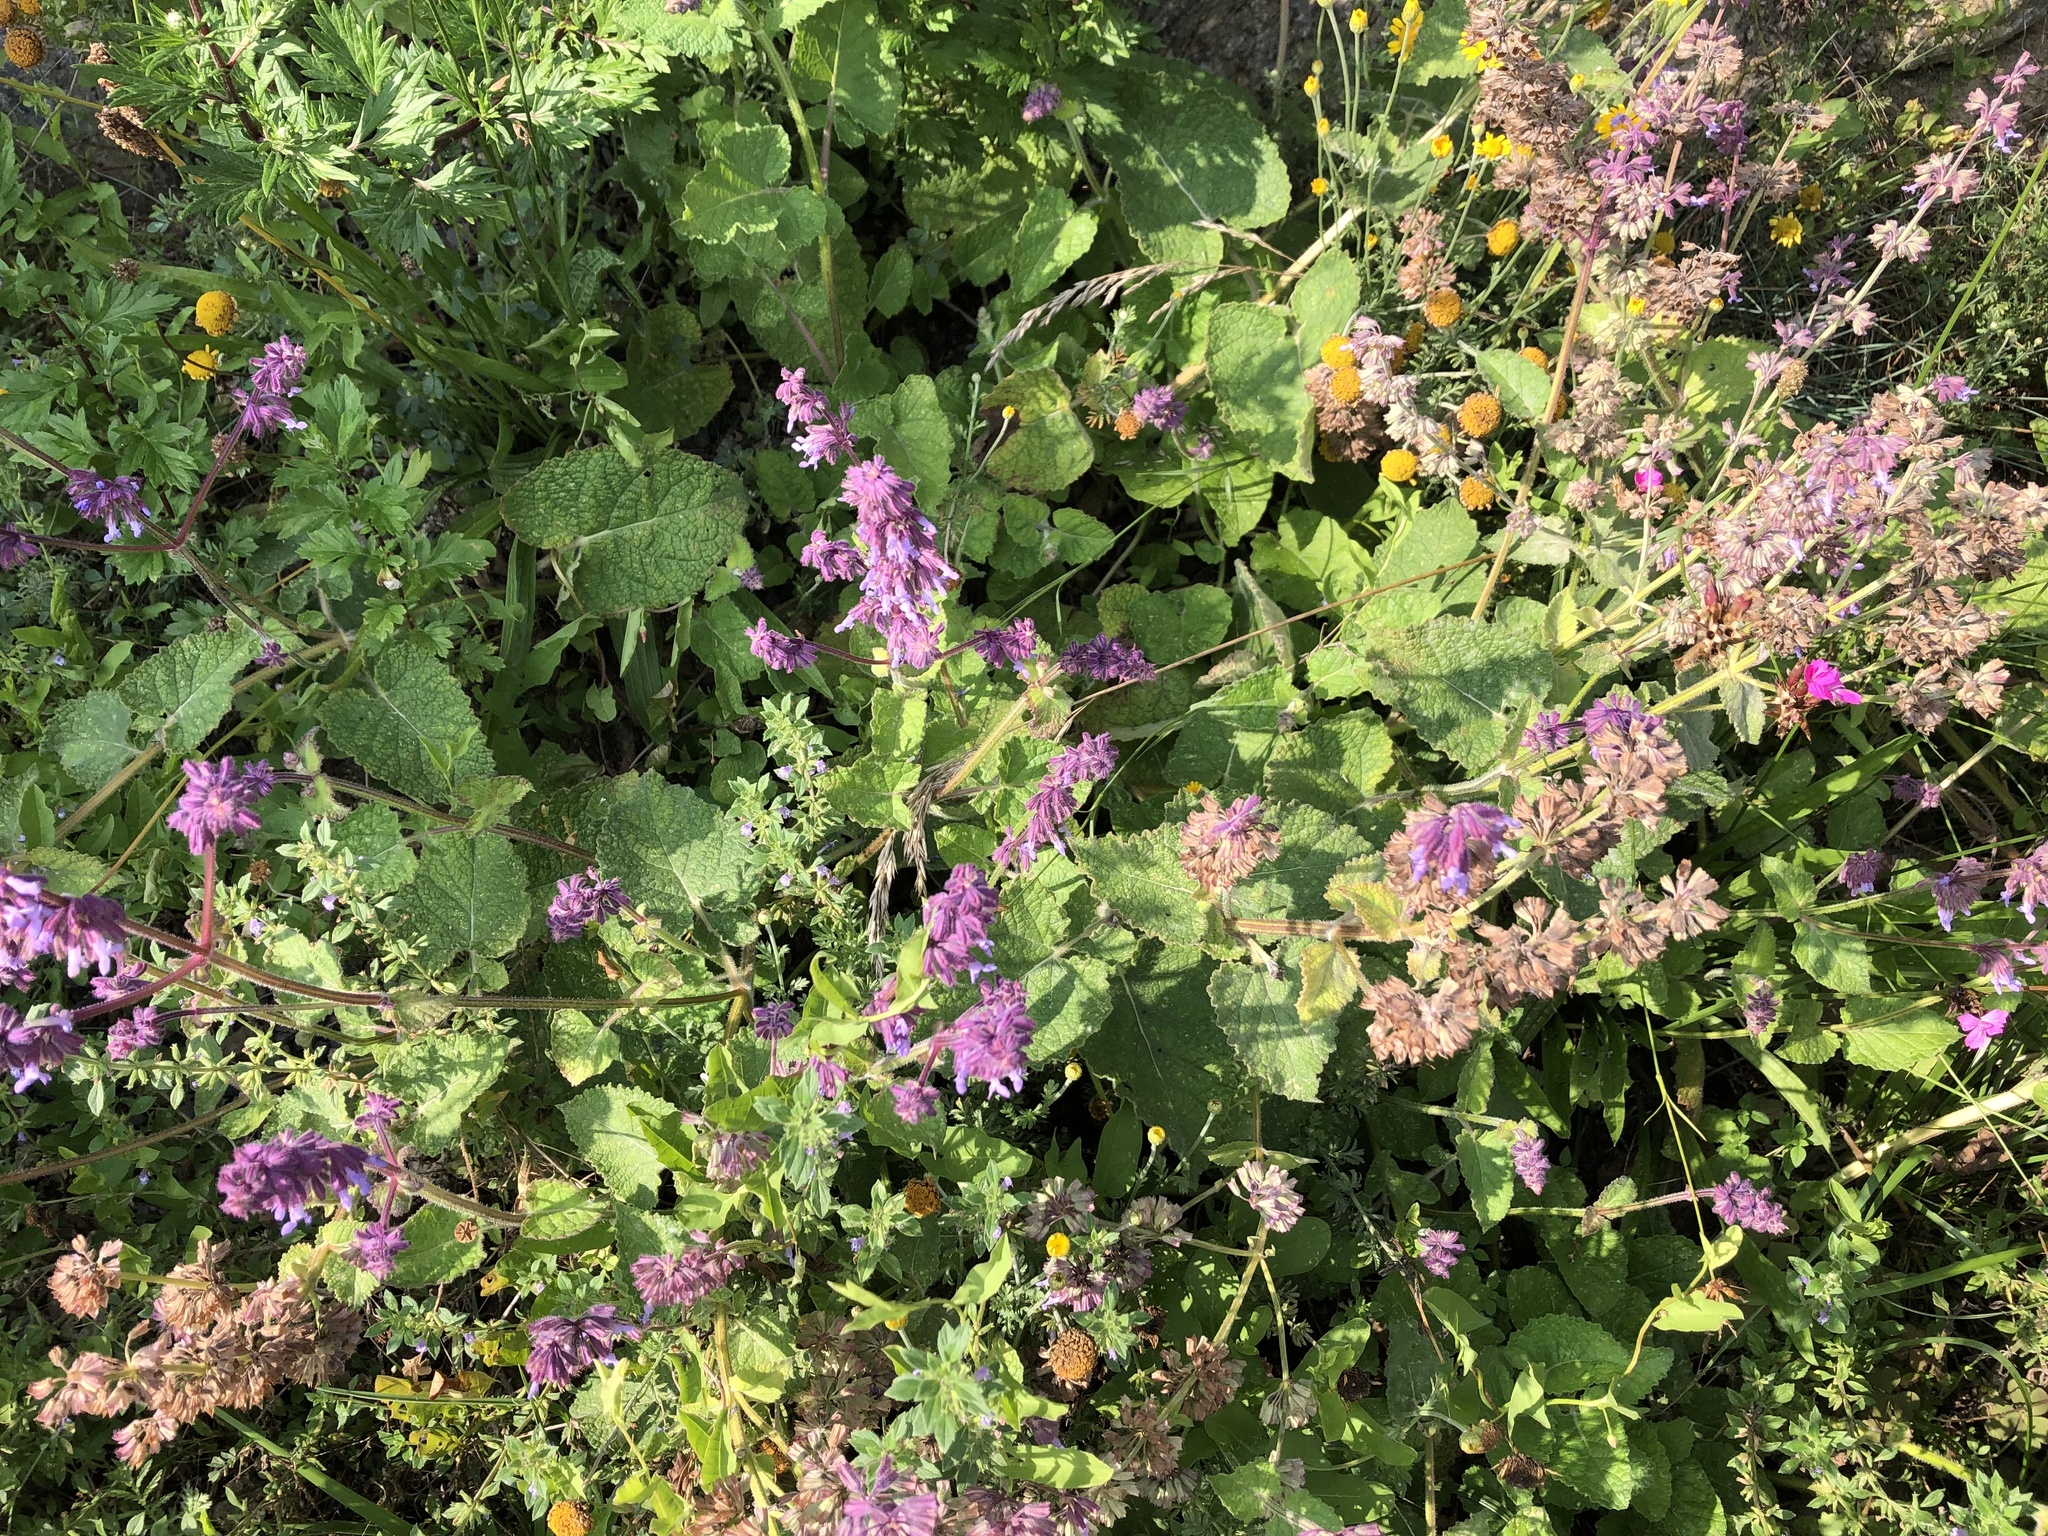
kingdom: Plantae
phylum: Tracheophyta
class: Magnoliopsida
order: Lamiales
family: Lamiaceae
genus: Salvia
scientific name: Salvia verticillata
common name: Whorled clary
